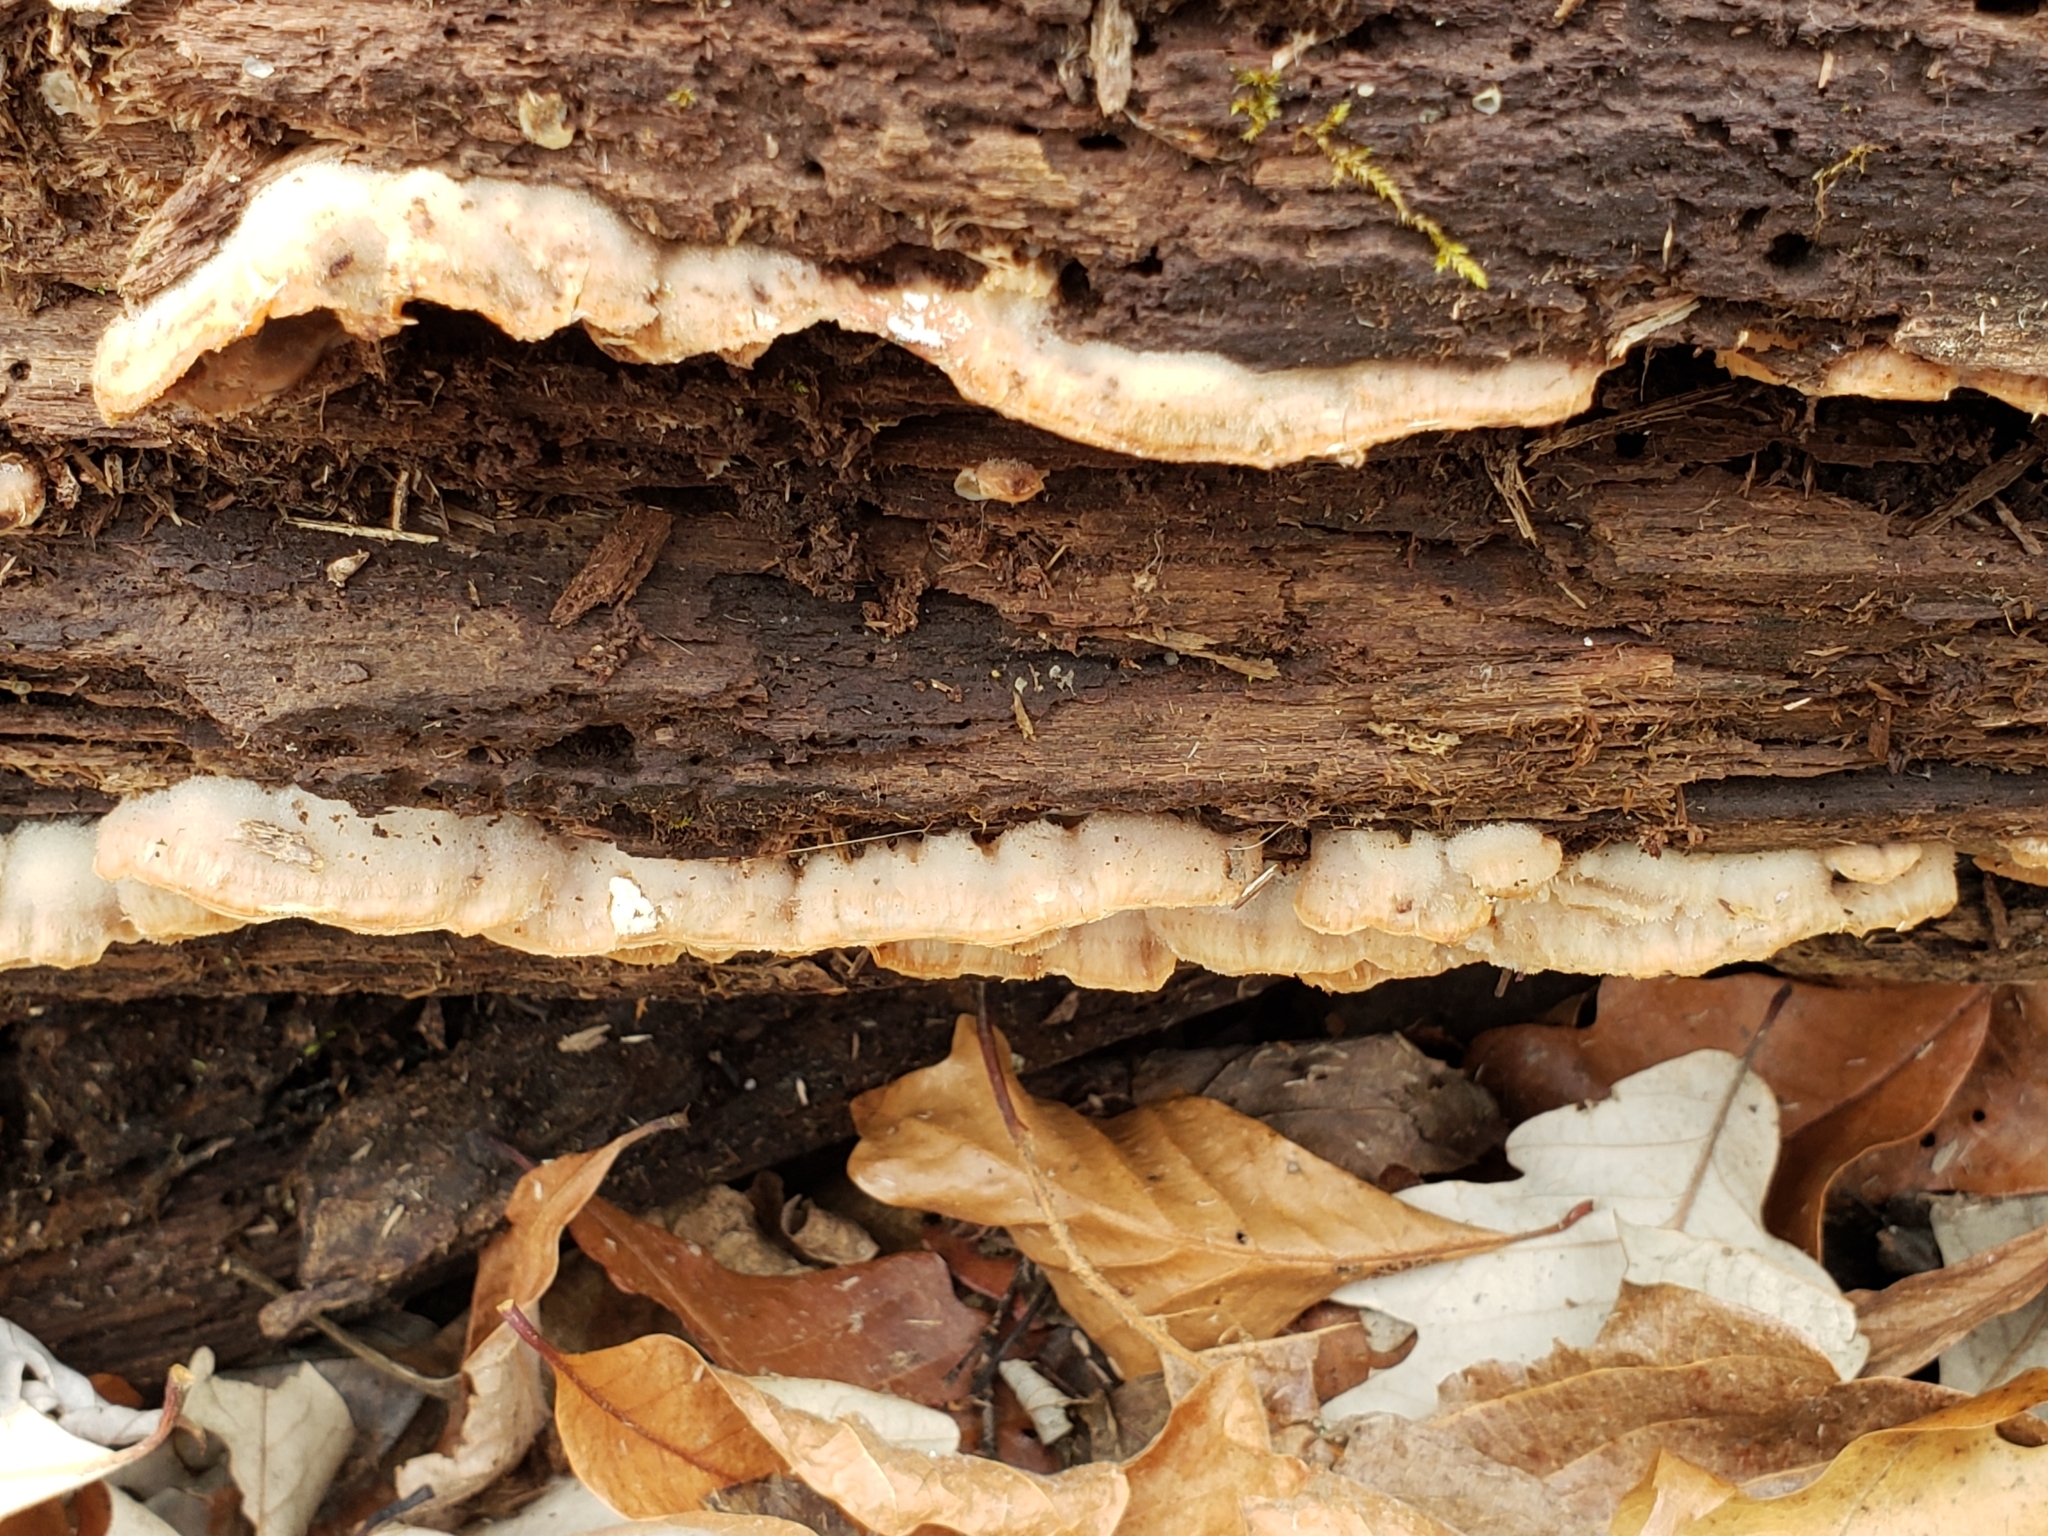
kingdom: Fungi
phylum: Basidiomycota
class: Agaricomycetes
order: Polyporales
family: Meruliaceae
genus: Phlebia
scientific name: Phlebia tremellosa
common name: Jelly rot
